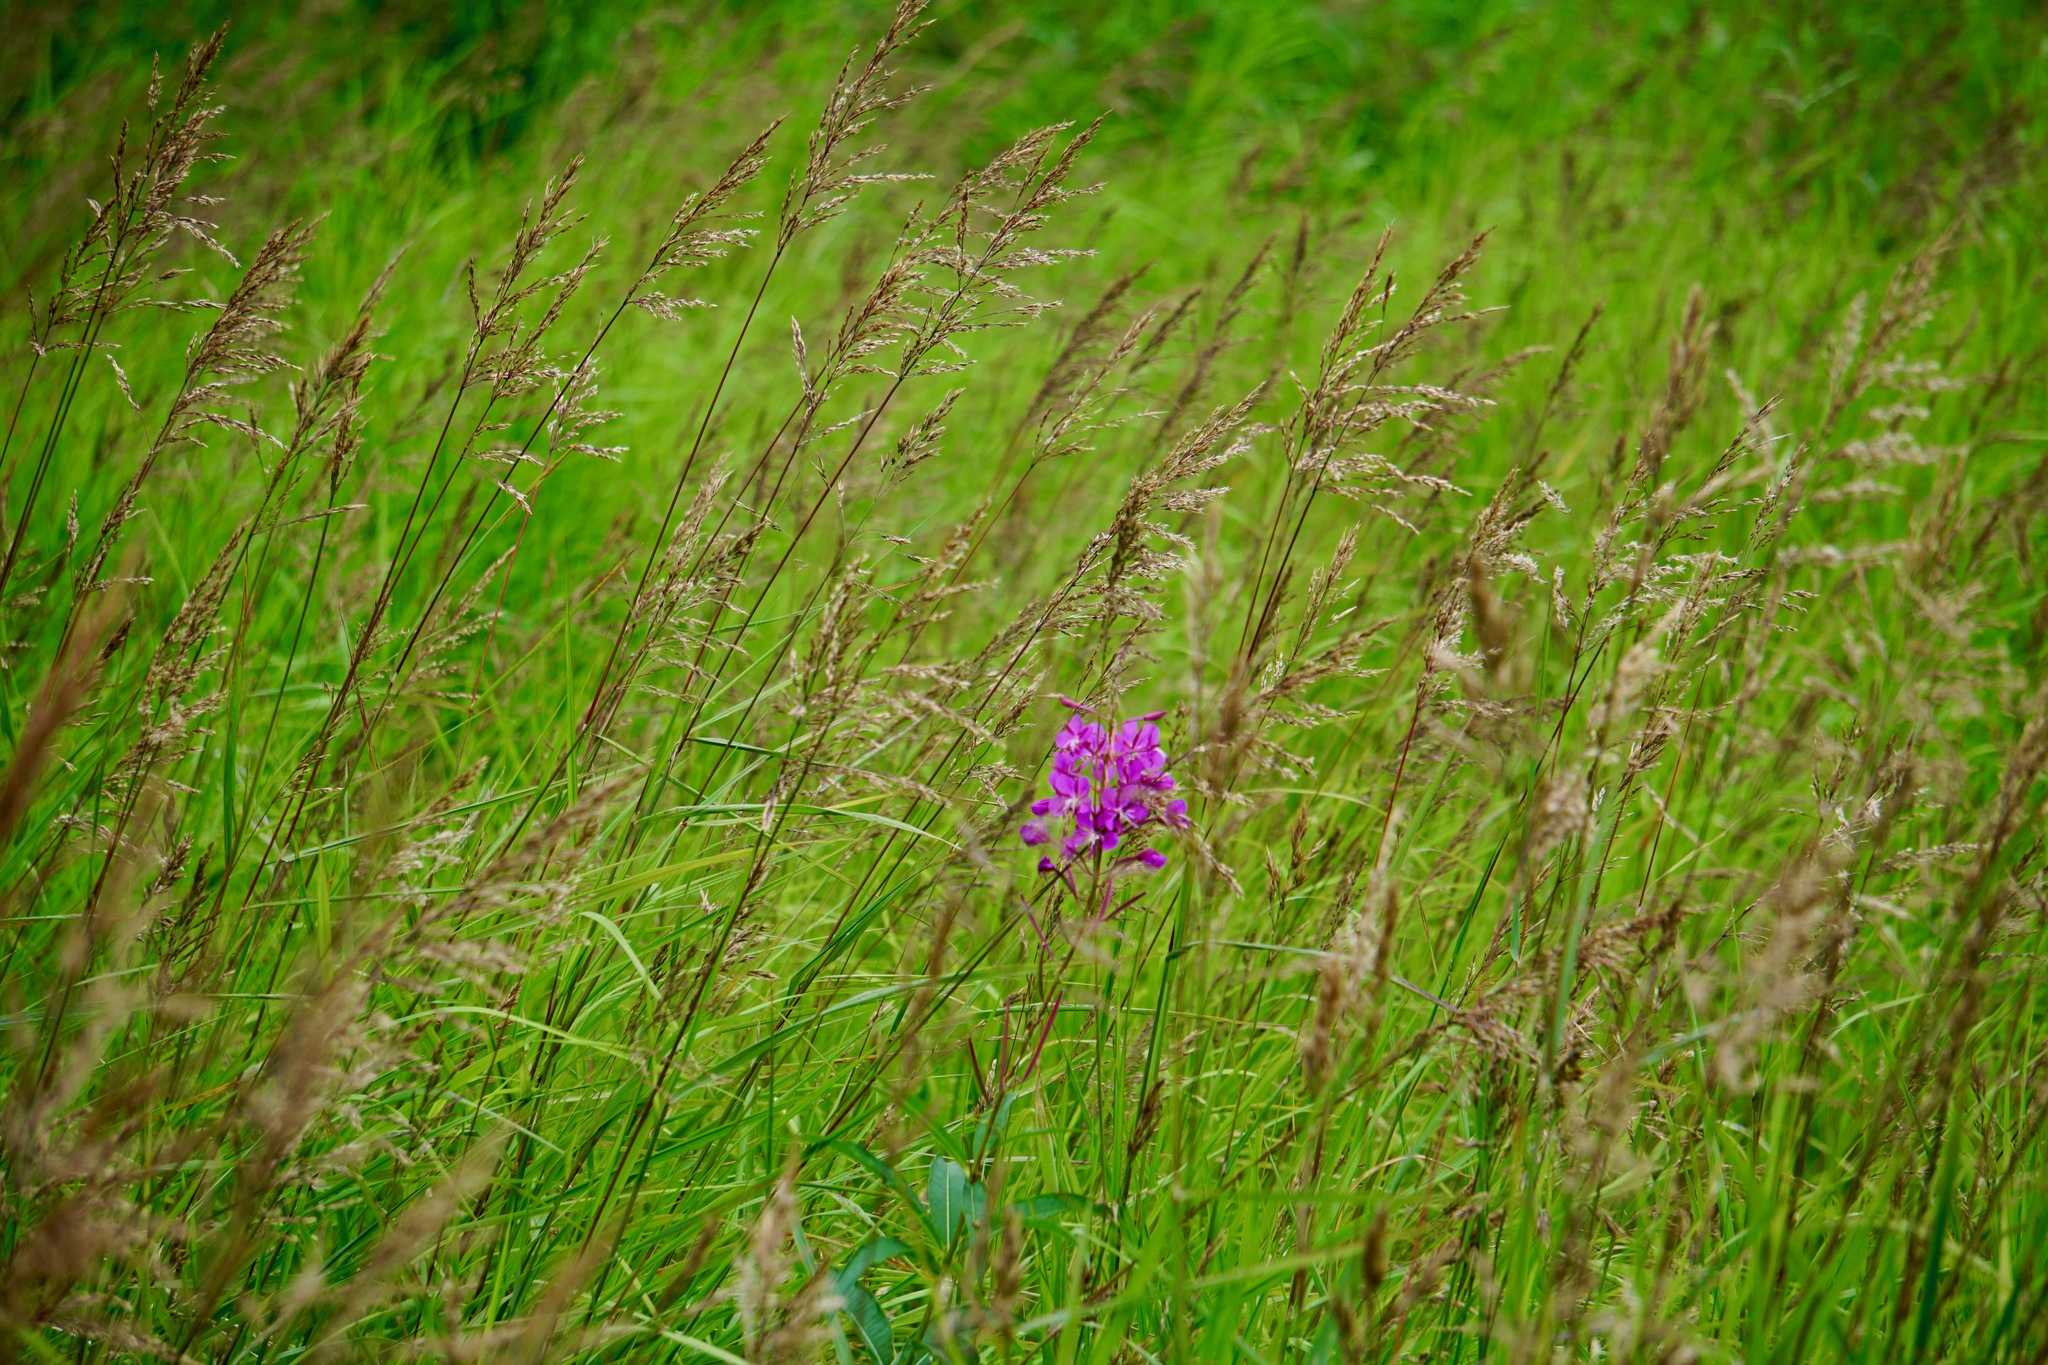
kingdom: Plantae
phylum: Tracheophyta
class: Magnoliopsida
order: Myrtales
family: Onagraceae
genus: Chamaenerion
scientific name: Chamaenerion angustifolium
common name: Fireweed
